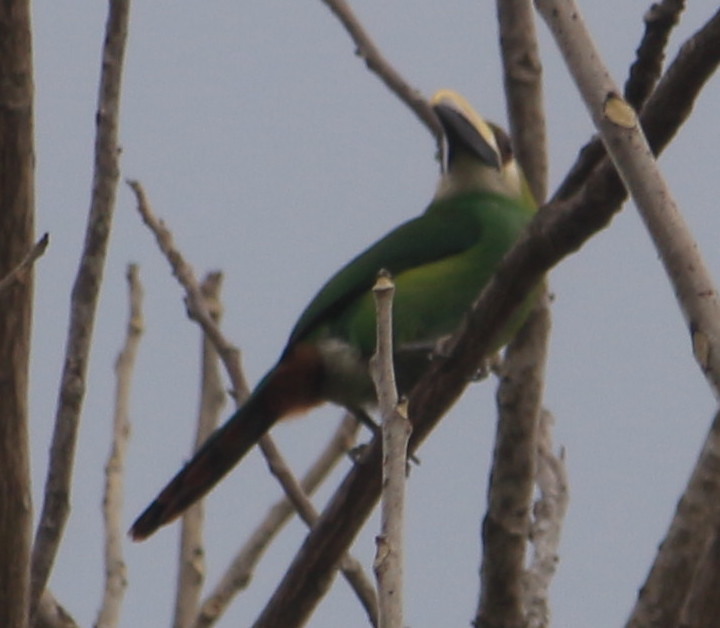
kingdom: Animalia
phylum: Chordata
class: Aves
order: Piciformes
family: Ramphastidae
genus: Aulacorhynchus
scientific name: Aulacorhynchus prasinus
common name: Emerald toucanet
